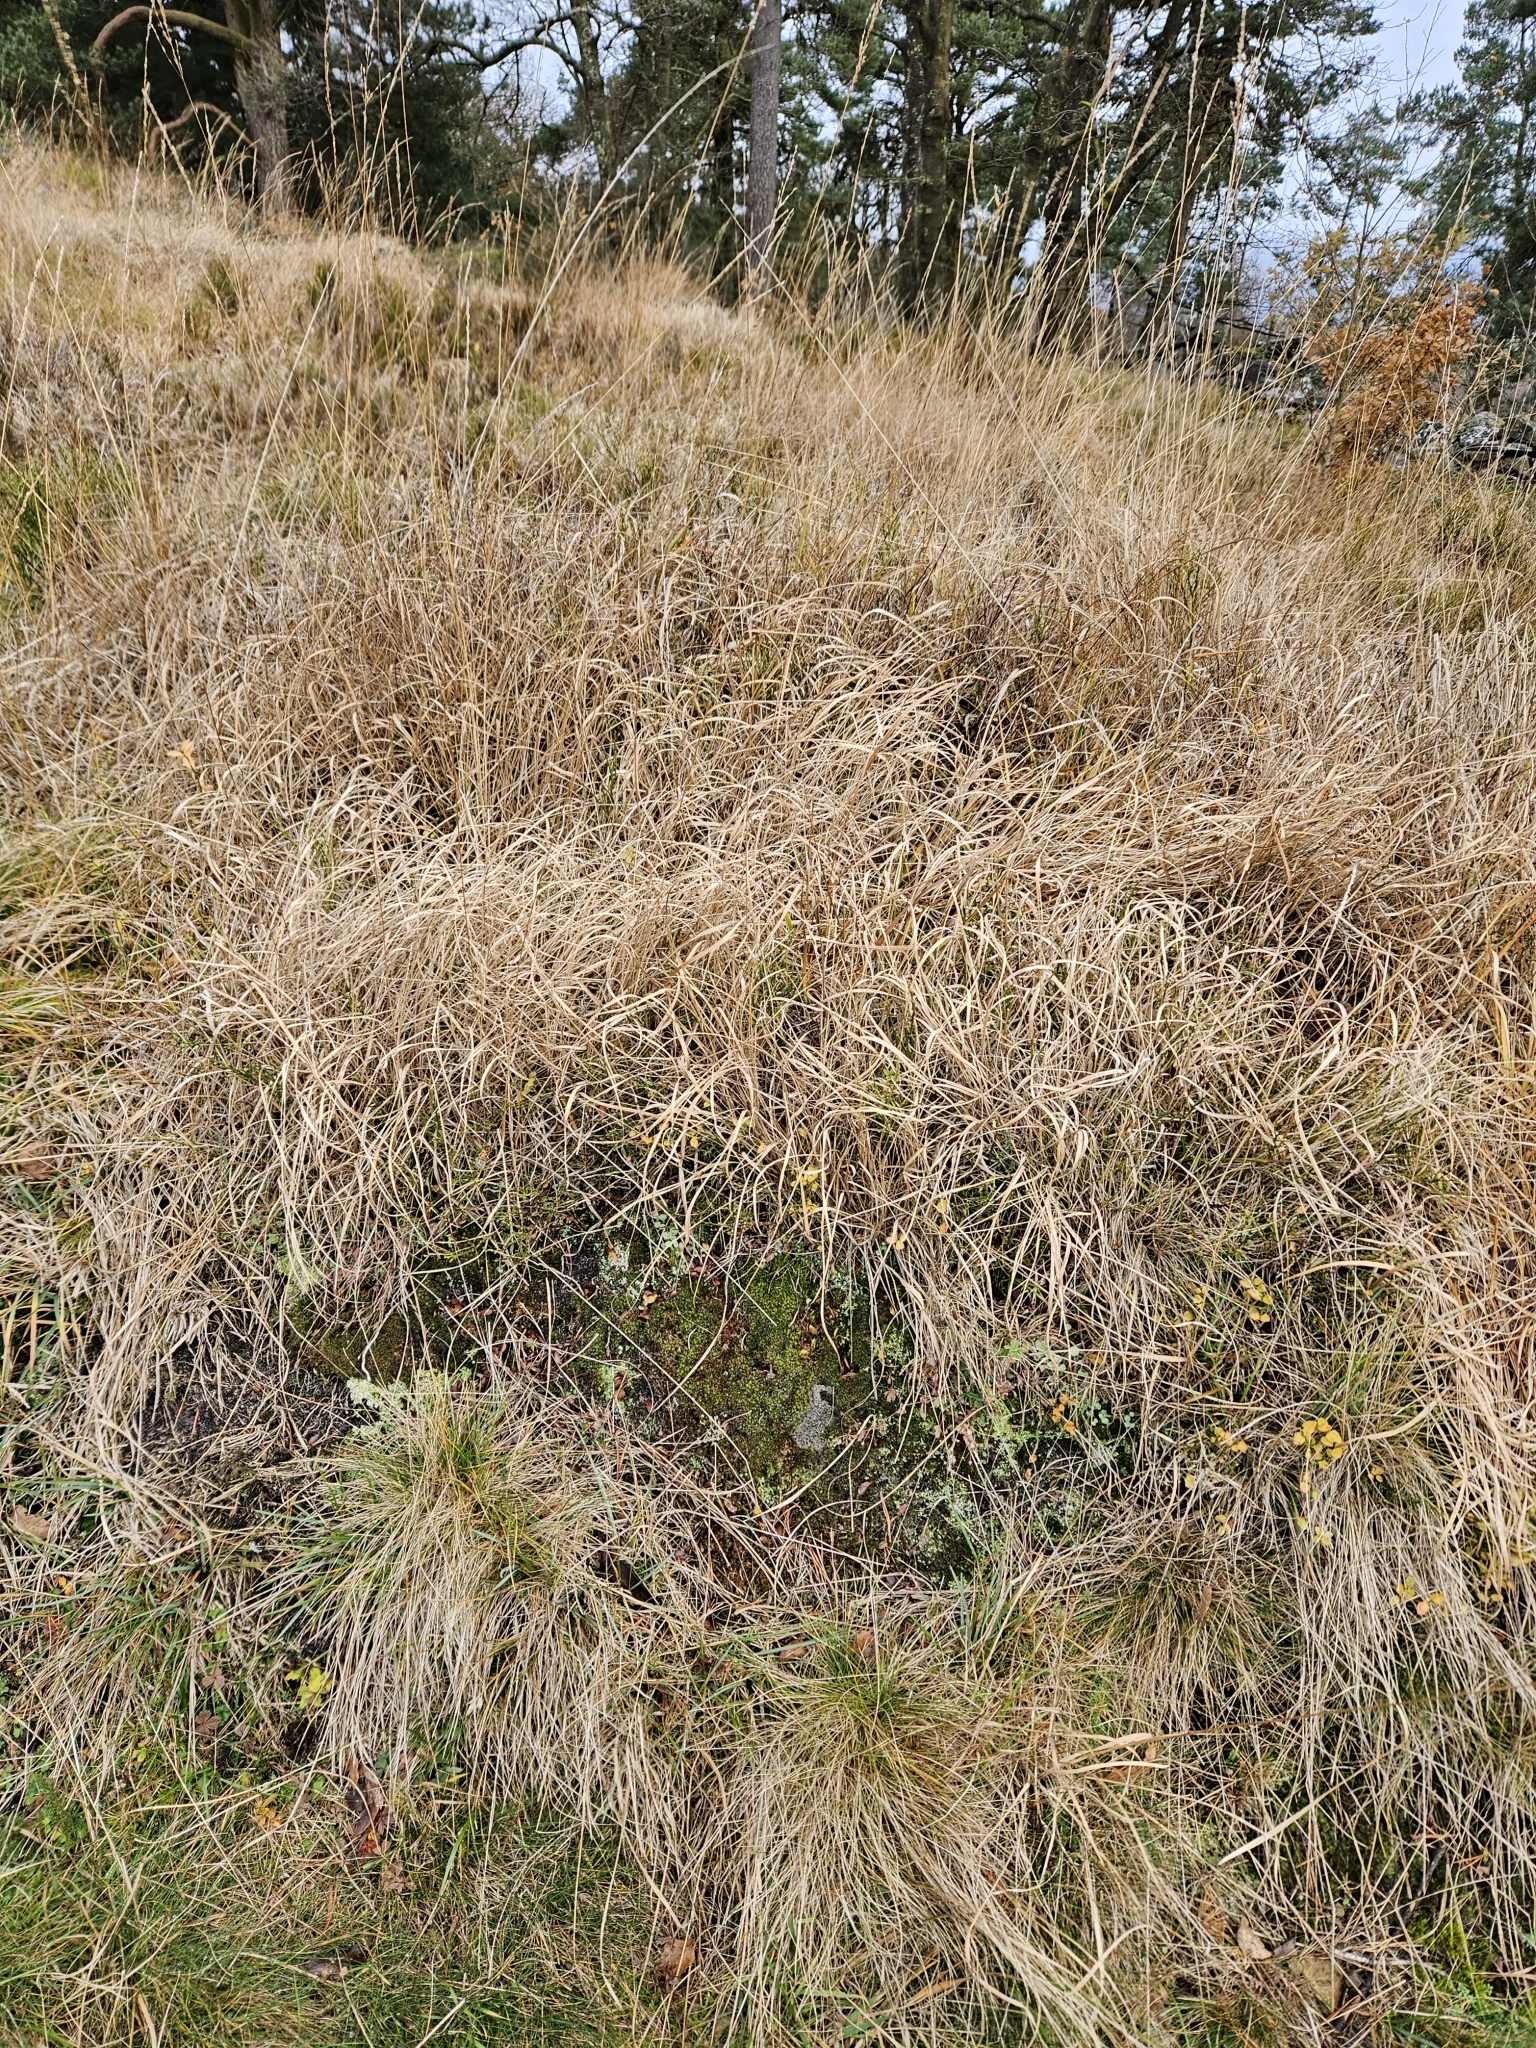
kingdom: Plantae
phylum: Bryophyta
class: Bryopsida
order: Dicranales
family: Leucobryaceae
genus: Campylopus
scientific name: Campylopus introflexus
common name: Heath star moss
